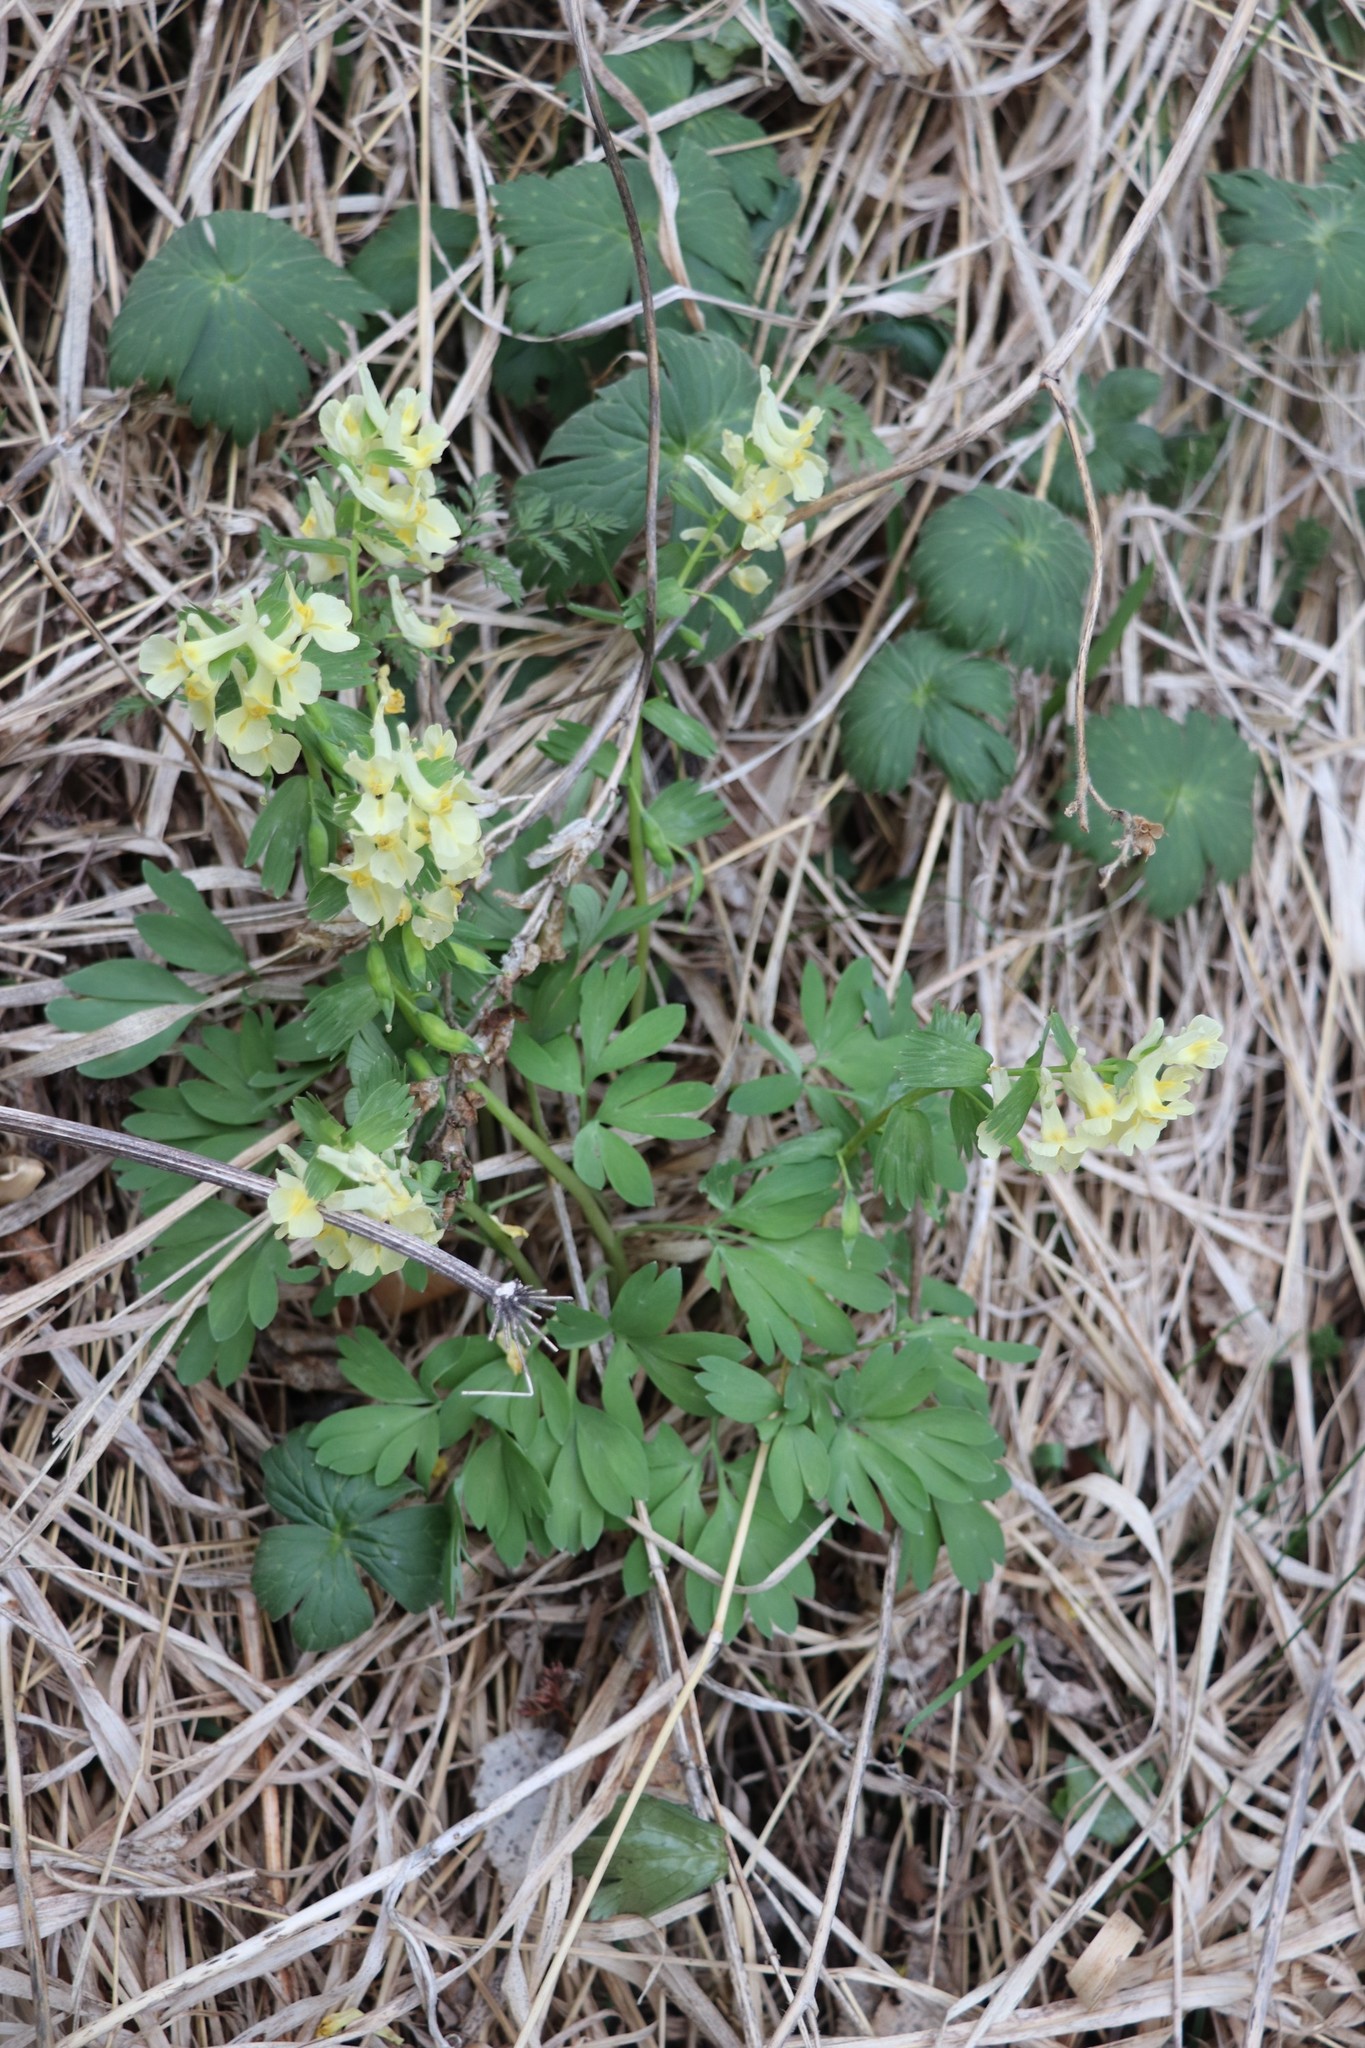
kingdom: Plantae
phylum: Tracheophyta
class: Magnoliopsida
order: Ranunculales
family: Papaveraceae
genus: Corydalis
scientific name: Corydalis bracteata
